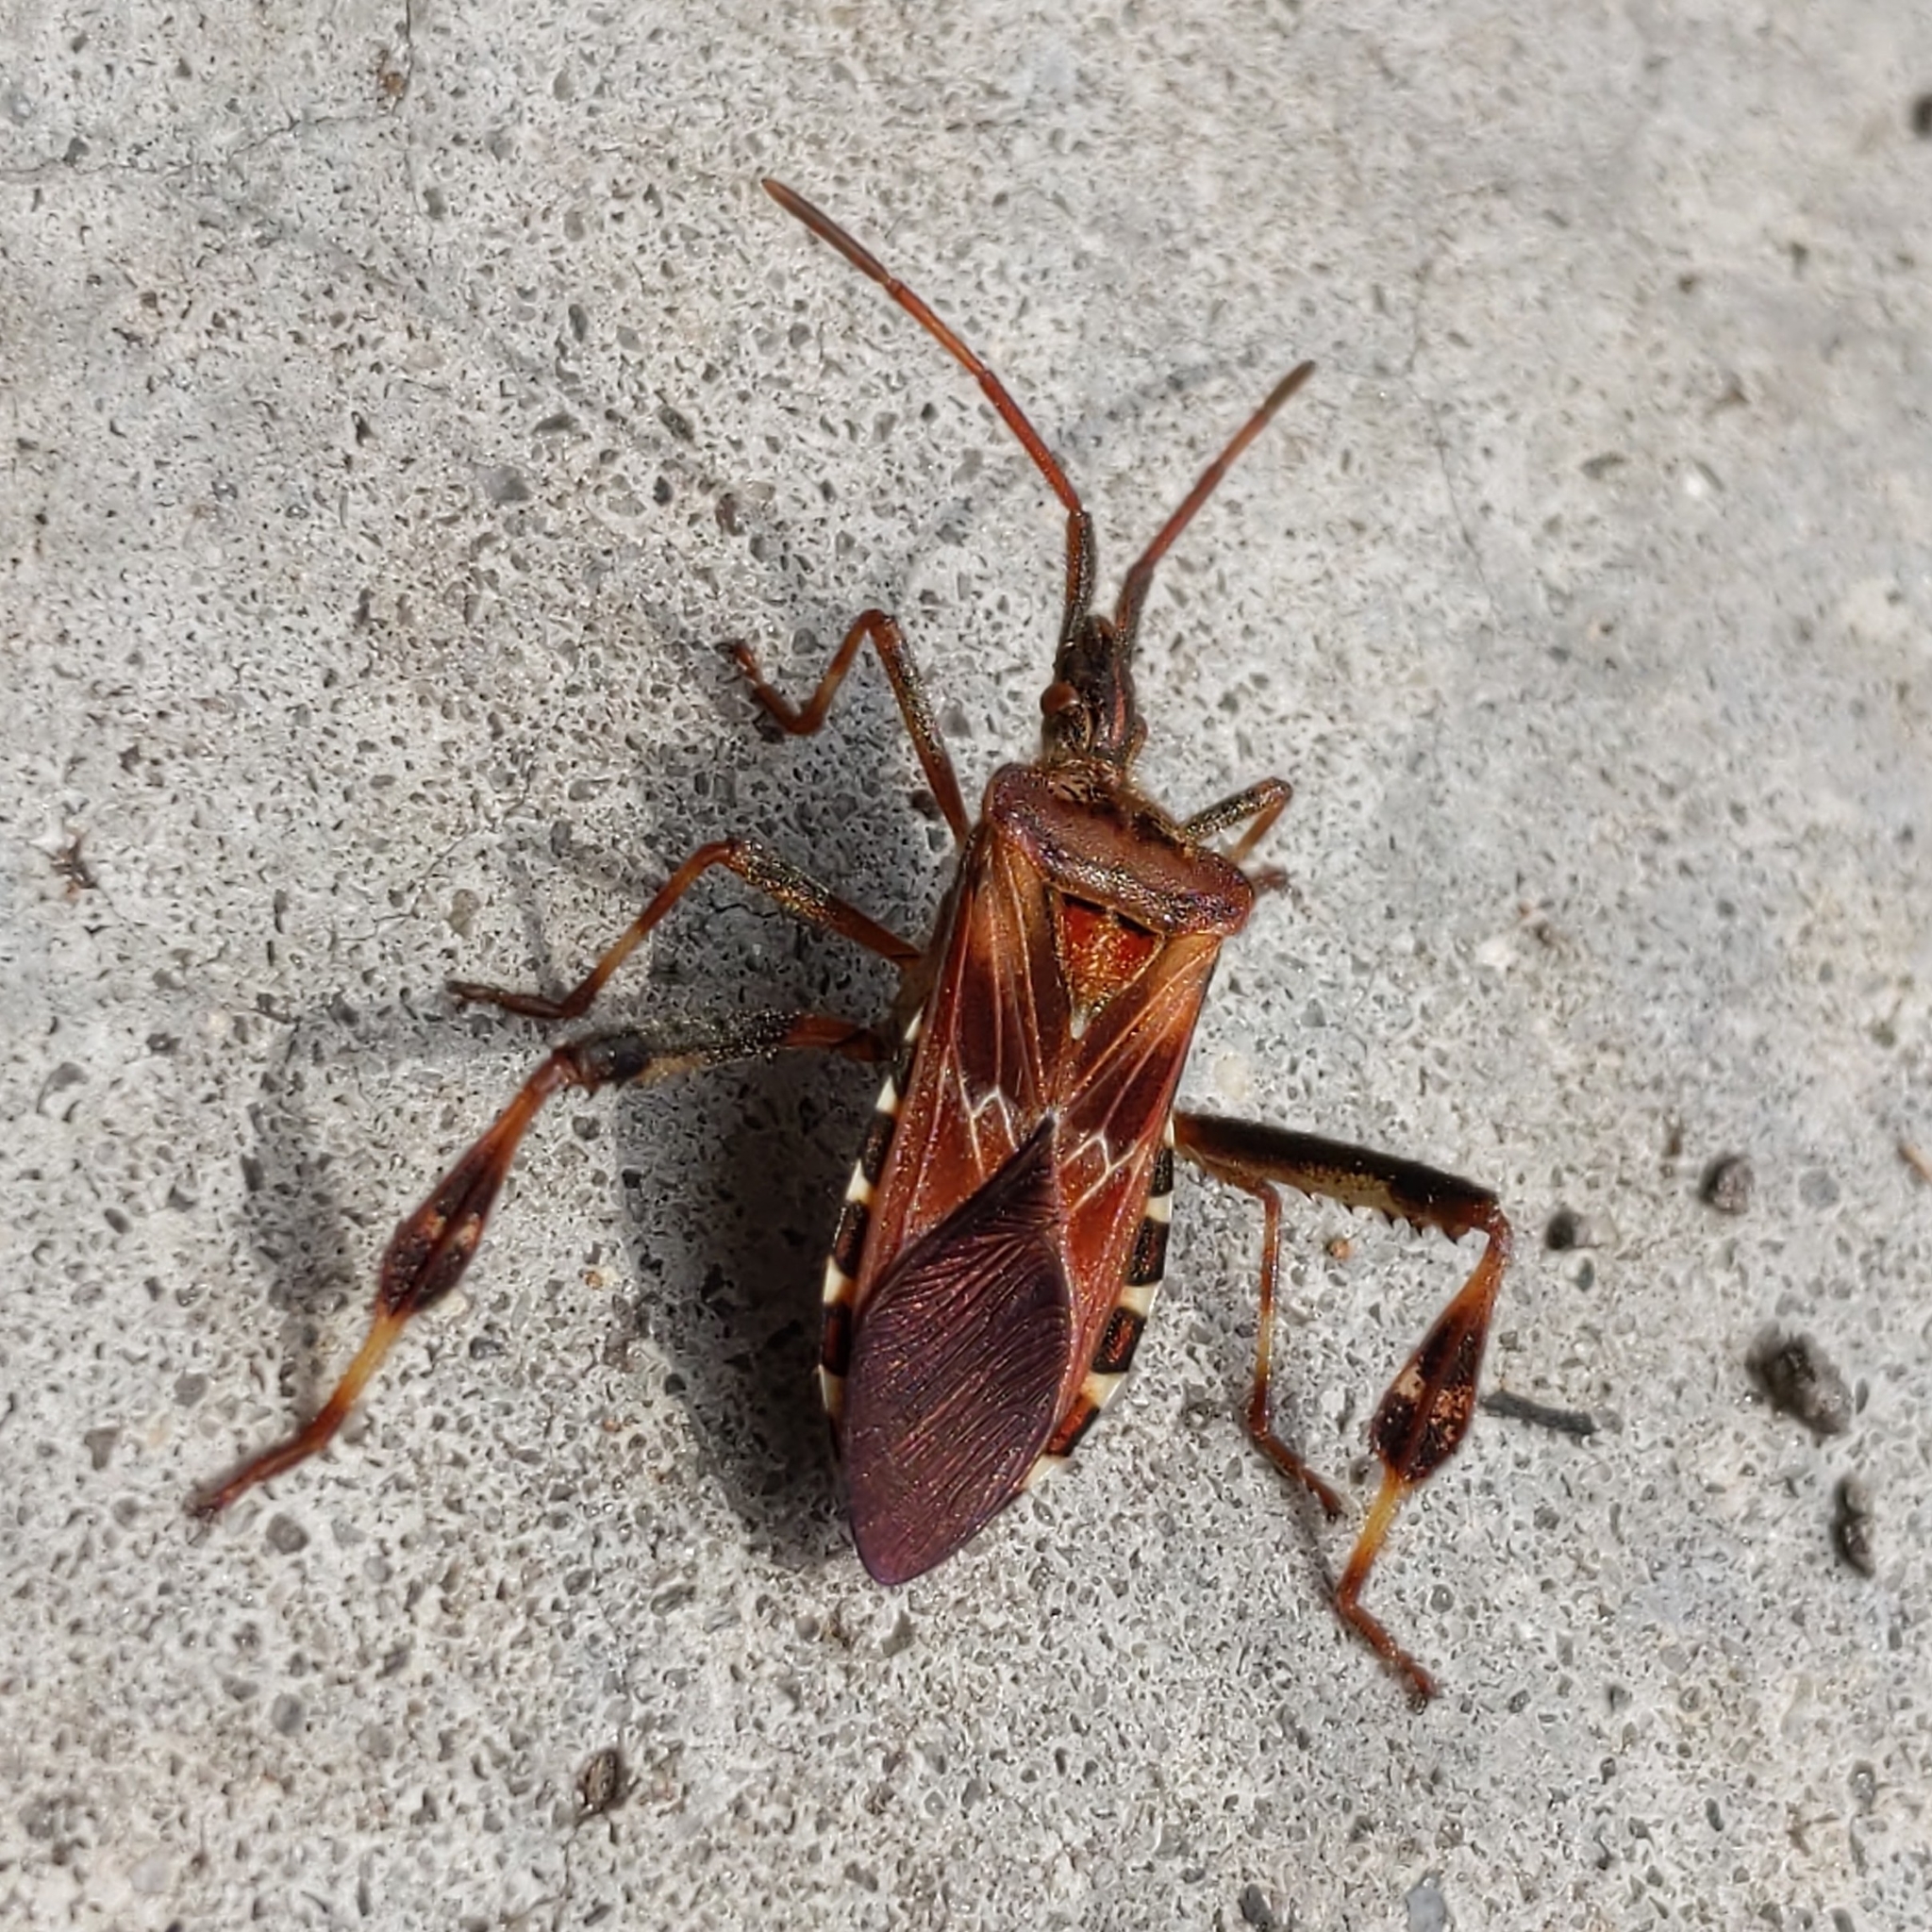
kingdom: Animalia
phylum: Arthropoda
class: Insecta
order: Hemiptera
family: Coreidae
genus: Leptoglossus
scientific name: Leptoglossus occidentalis
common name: Western conifer-seed bug
